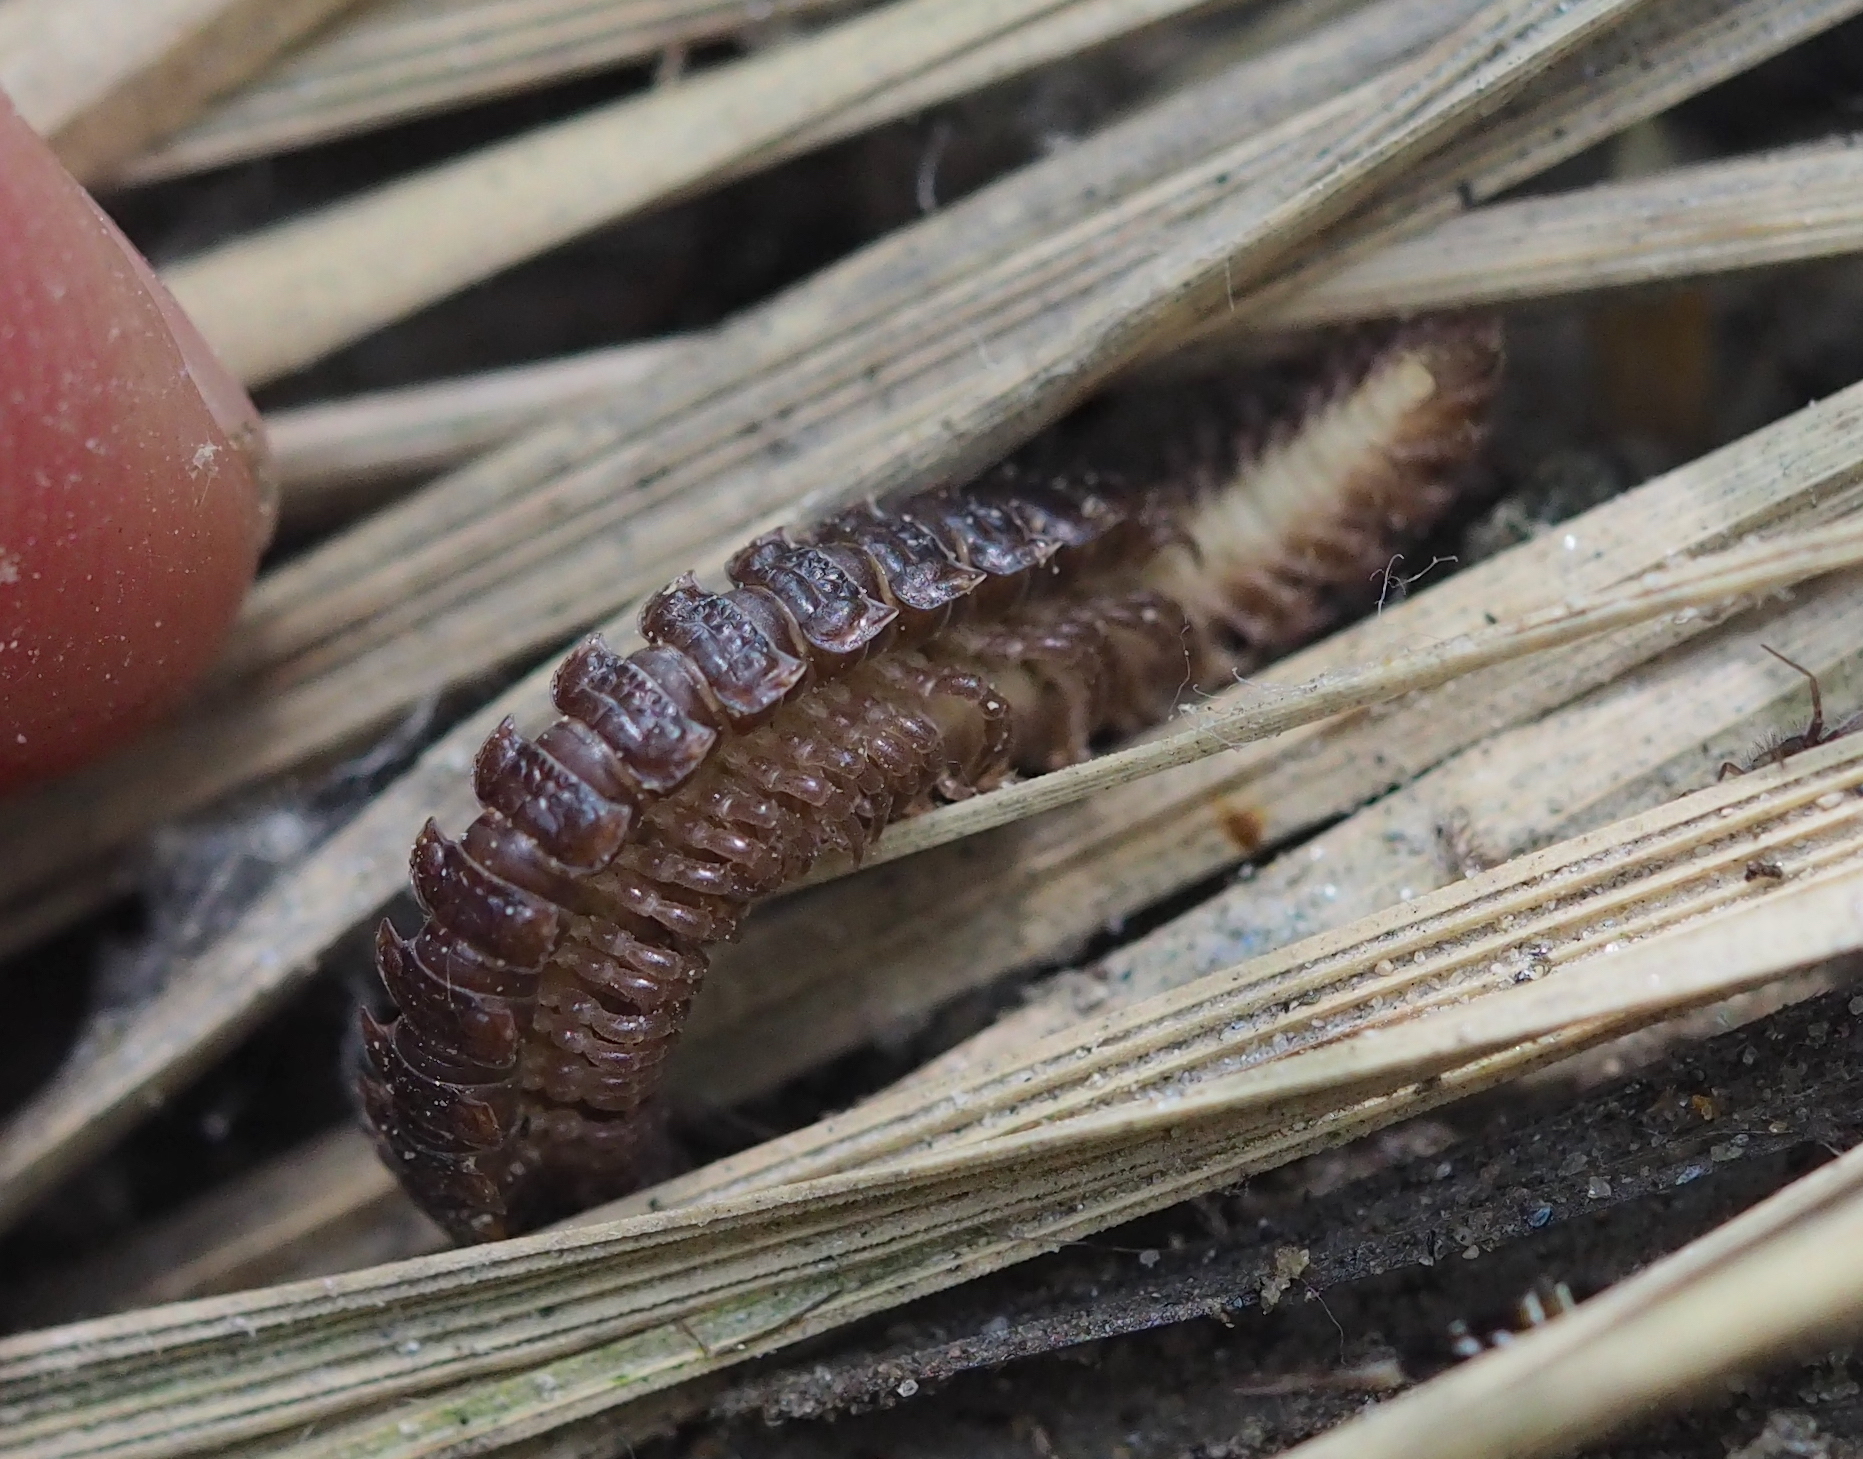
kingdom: Animalia
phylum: Arthropoda
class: Diplopoda
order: Polydesmida
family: Polydesmidae
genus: Polydesmus
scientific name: Polydesmus complanatus
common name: Flat-backed millipede
